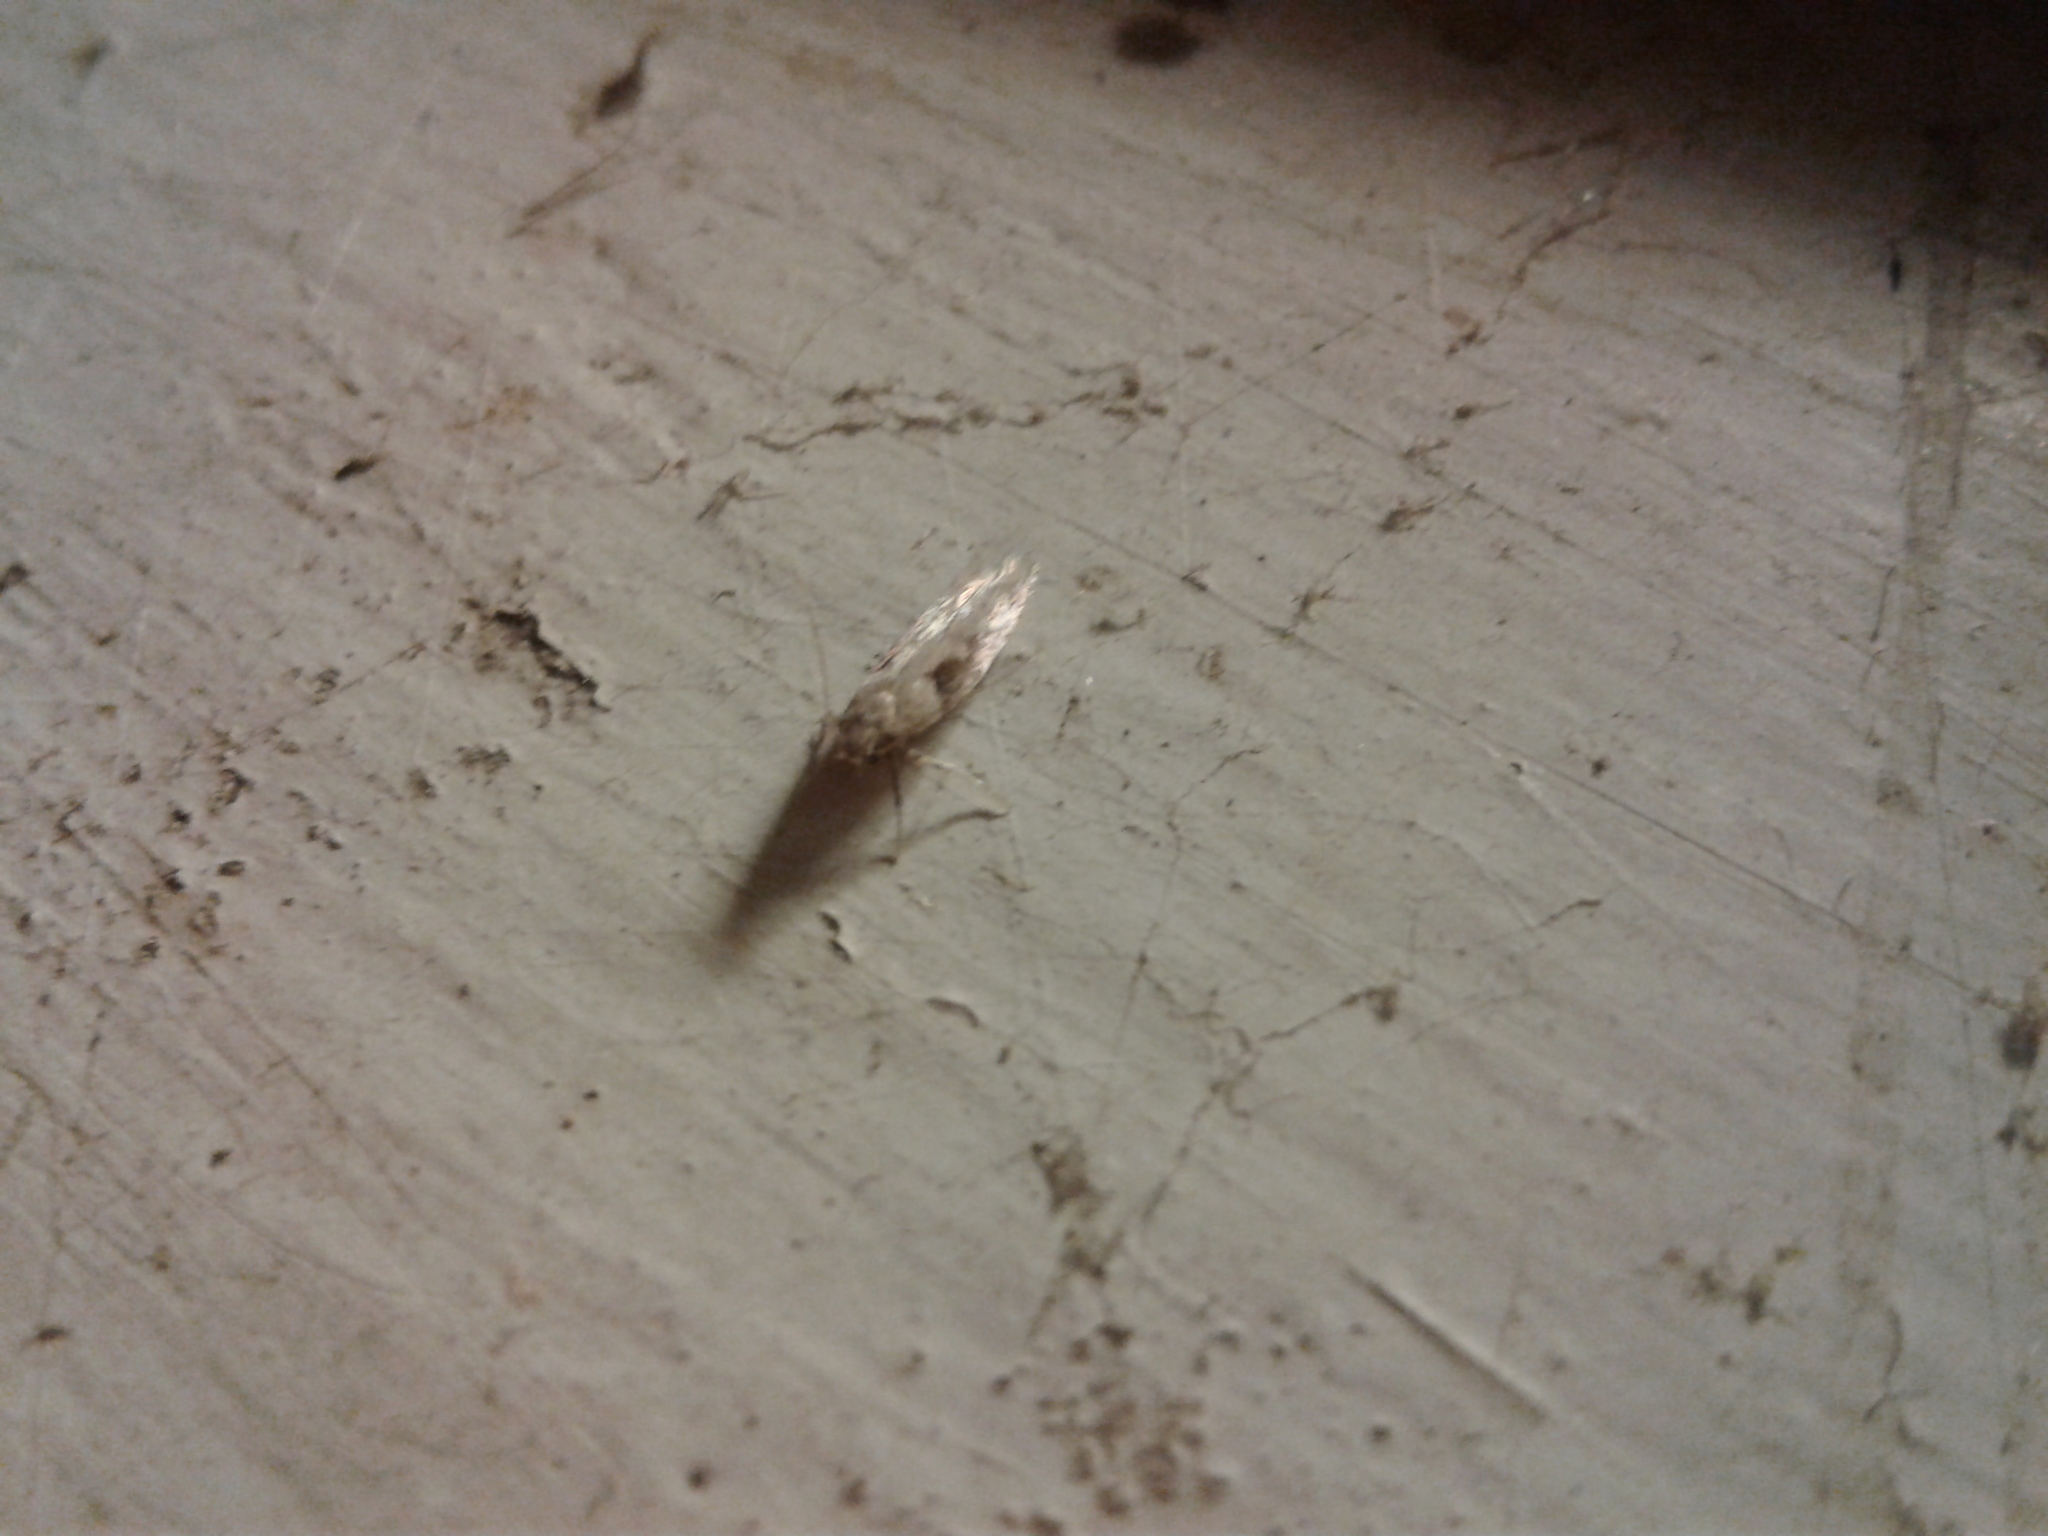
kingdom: Animalia
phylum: Arthropoda
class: Insecta
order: Lepidoptera
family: Gelechiidae
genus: Symmetrischema
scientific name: Symmetrischema tangolias
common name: Moth
